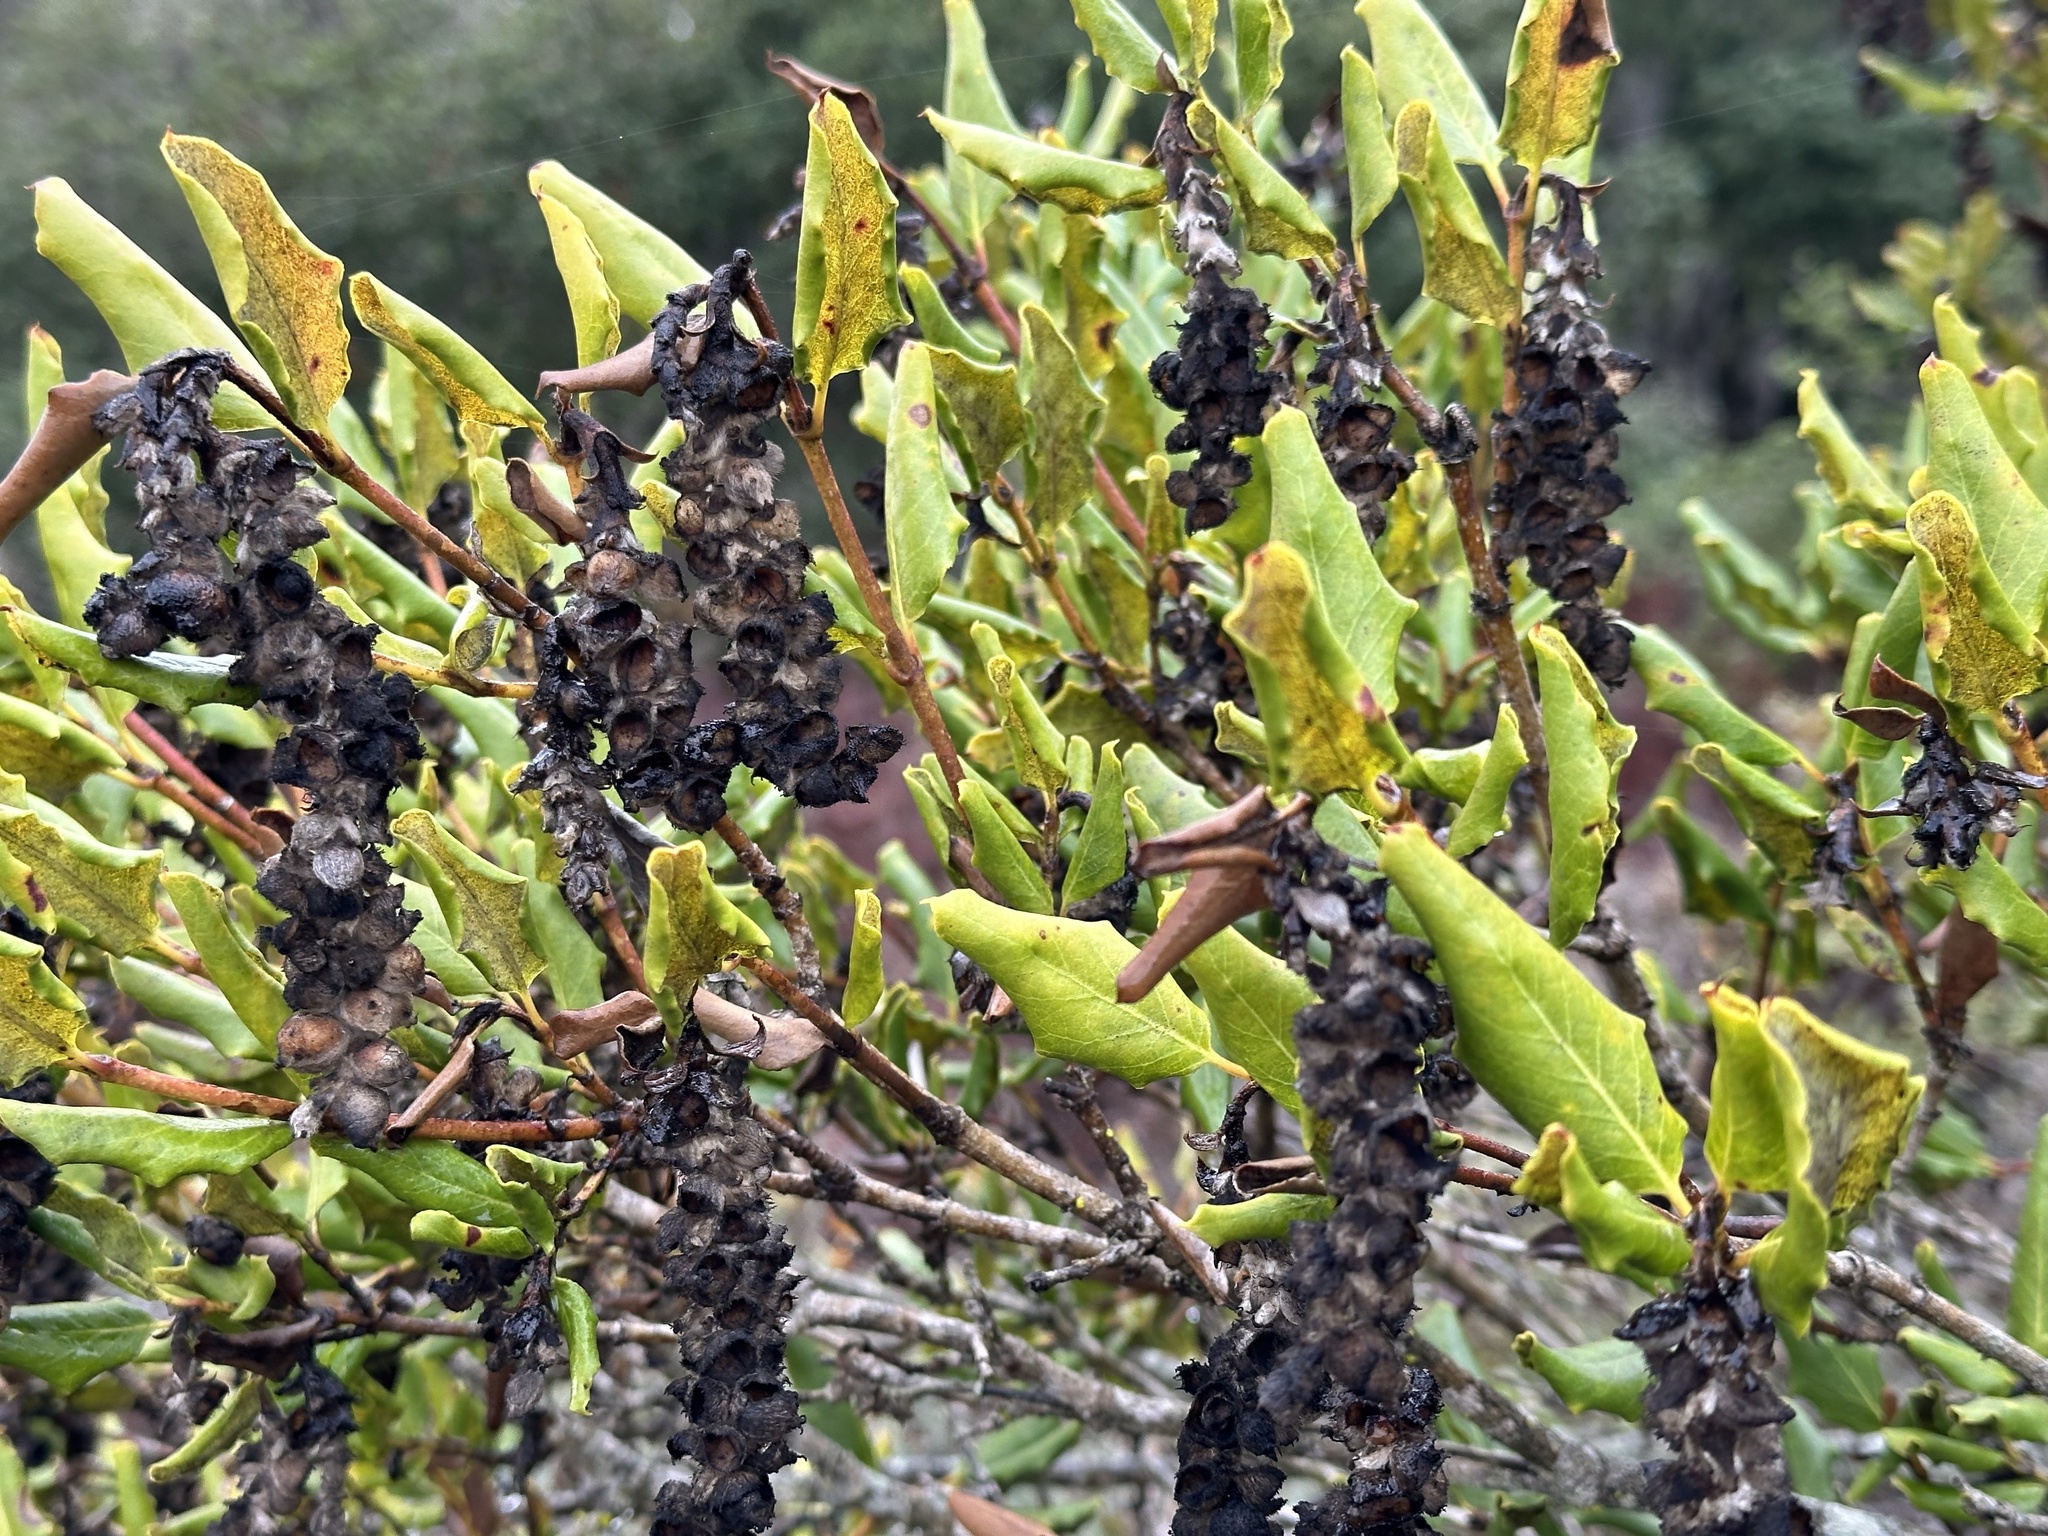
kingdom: Plantae
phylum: Tracheophyta
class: Magnoliopsida
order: Garryales
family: Garryaceae
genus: Garrya
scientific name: Garrya elliptica
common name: Silk-tassel
